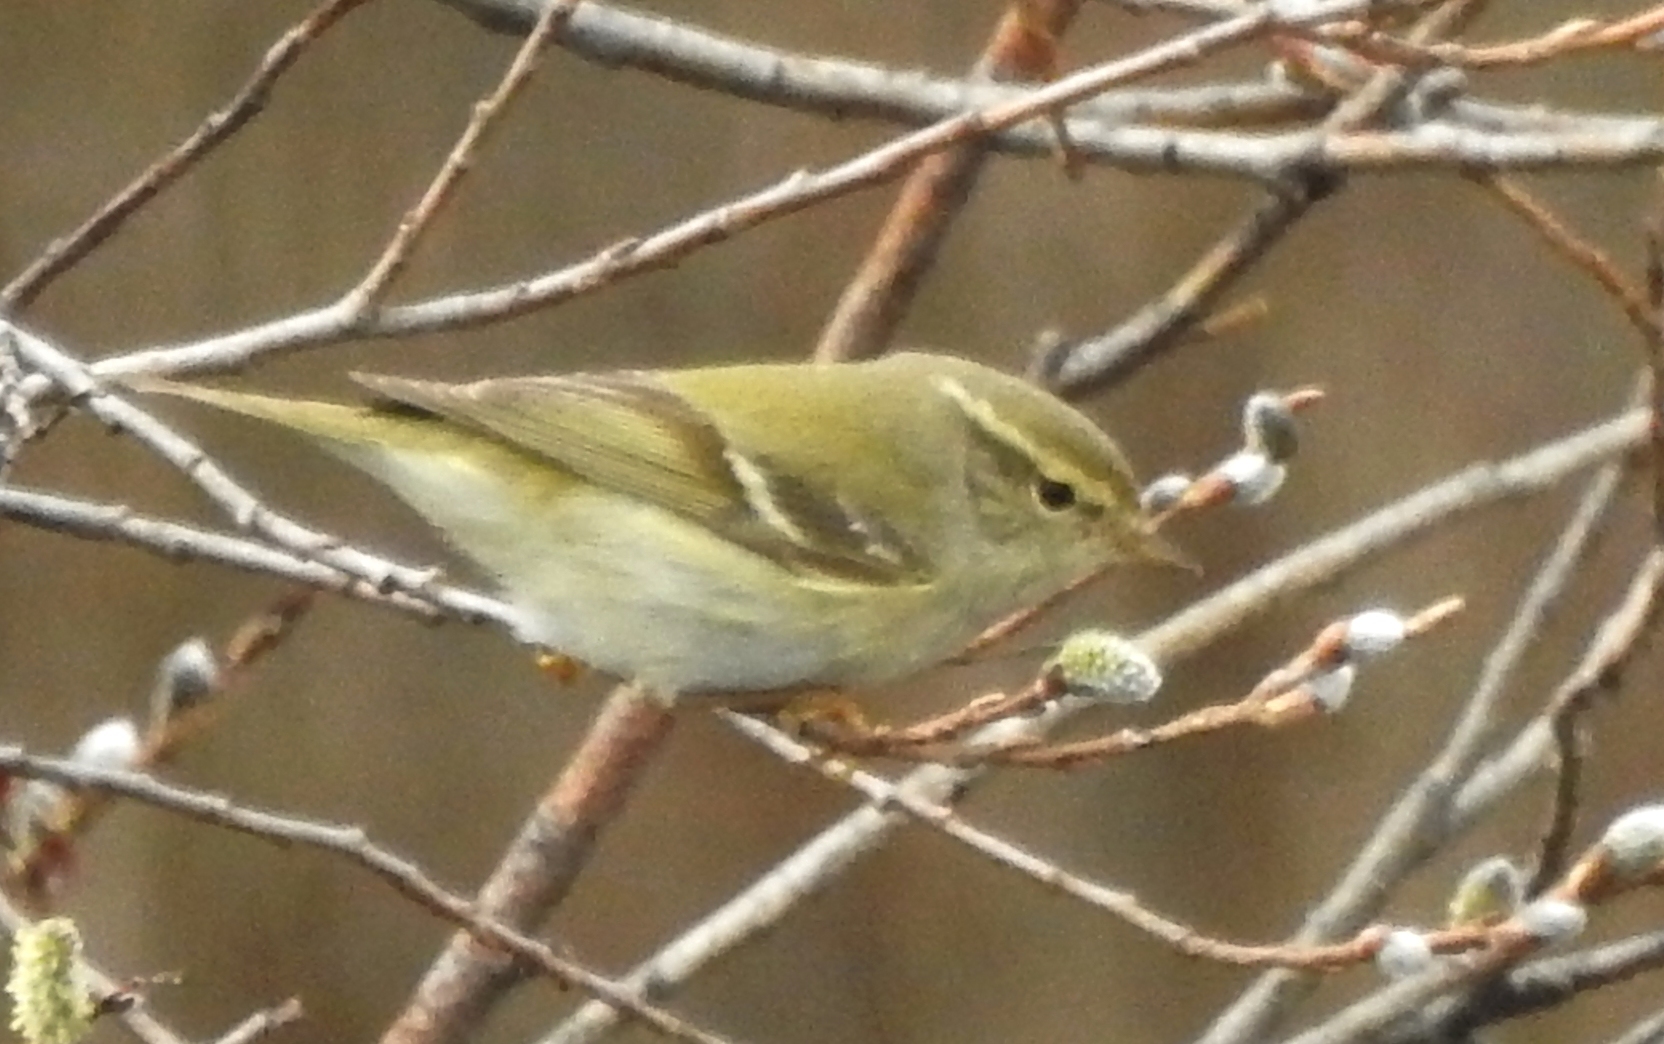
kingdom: Animalia
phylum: Chordata
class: Aves
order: Passeriformes
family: Phylloscopidae
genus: Phylloscopus
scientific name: Phylloscopus inornatus
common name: Yellow-browed warbler
